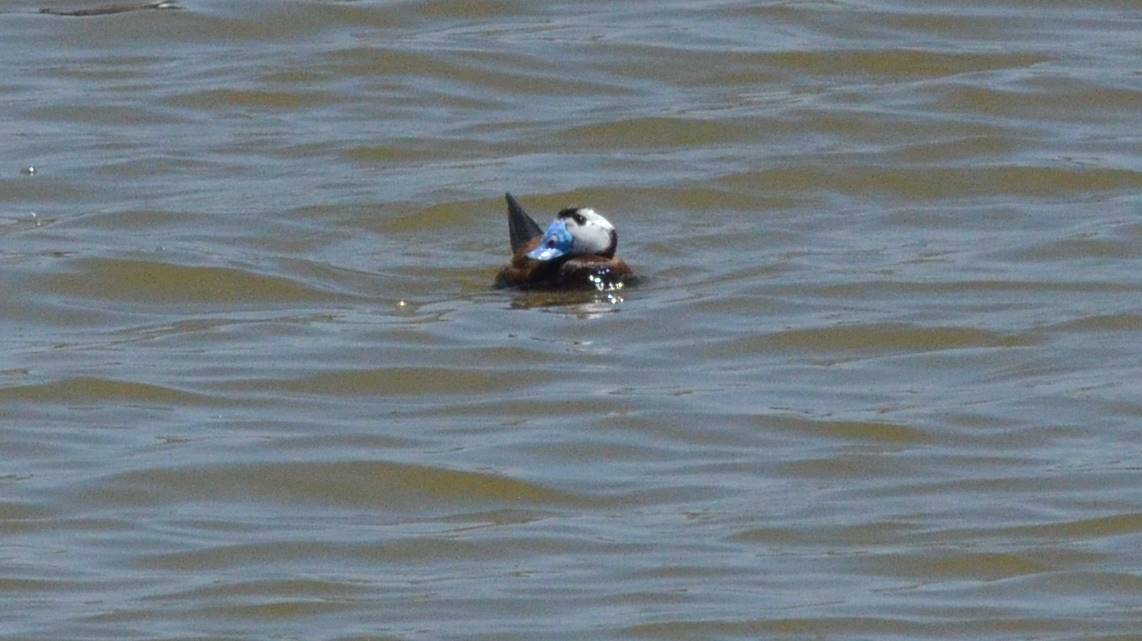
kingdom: Animalia
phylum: Chordata
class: Aves
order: Anseriformes
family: Anatidae
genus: Oxyura
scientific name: Oxyura leucocephala
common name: White-headed duck
